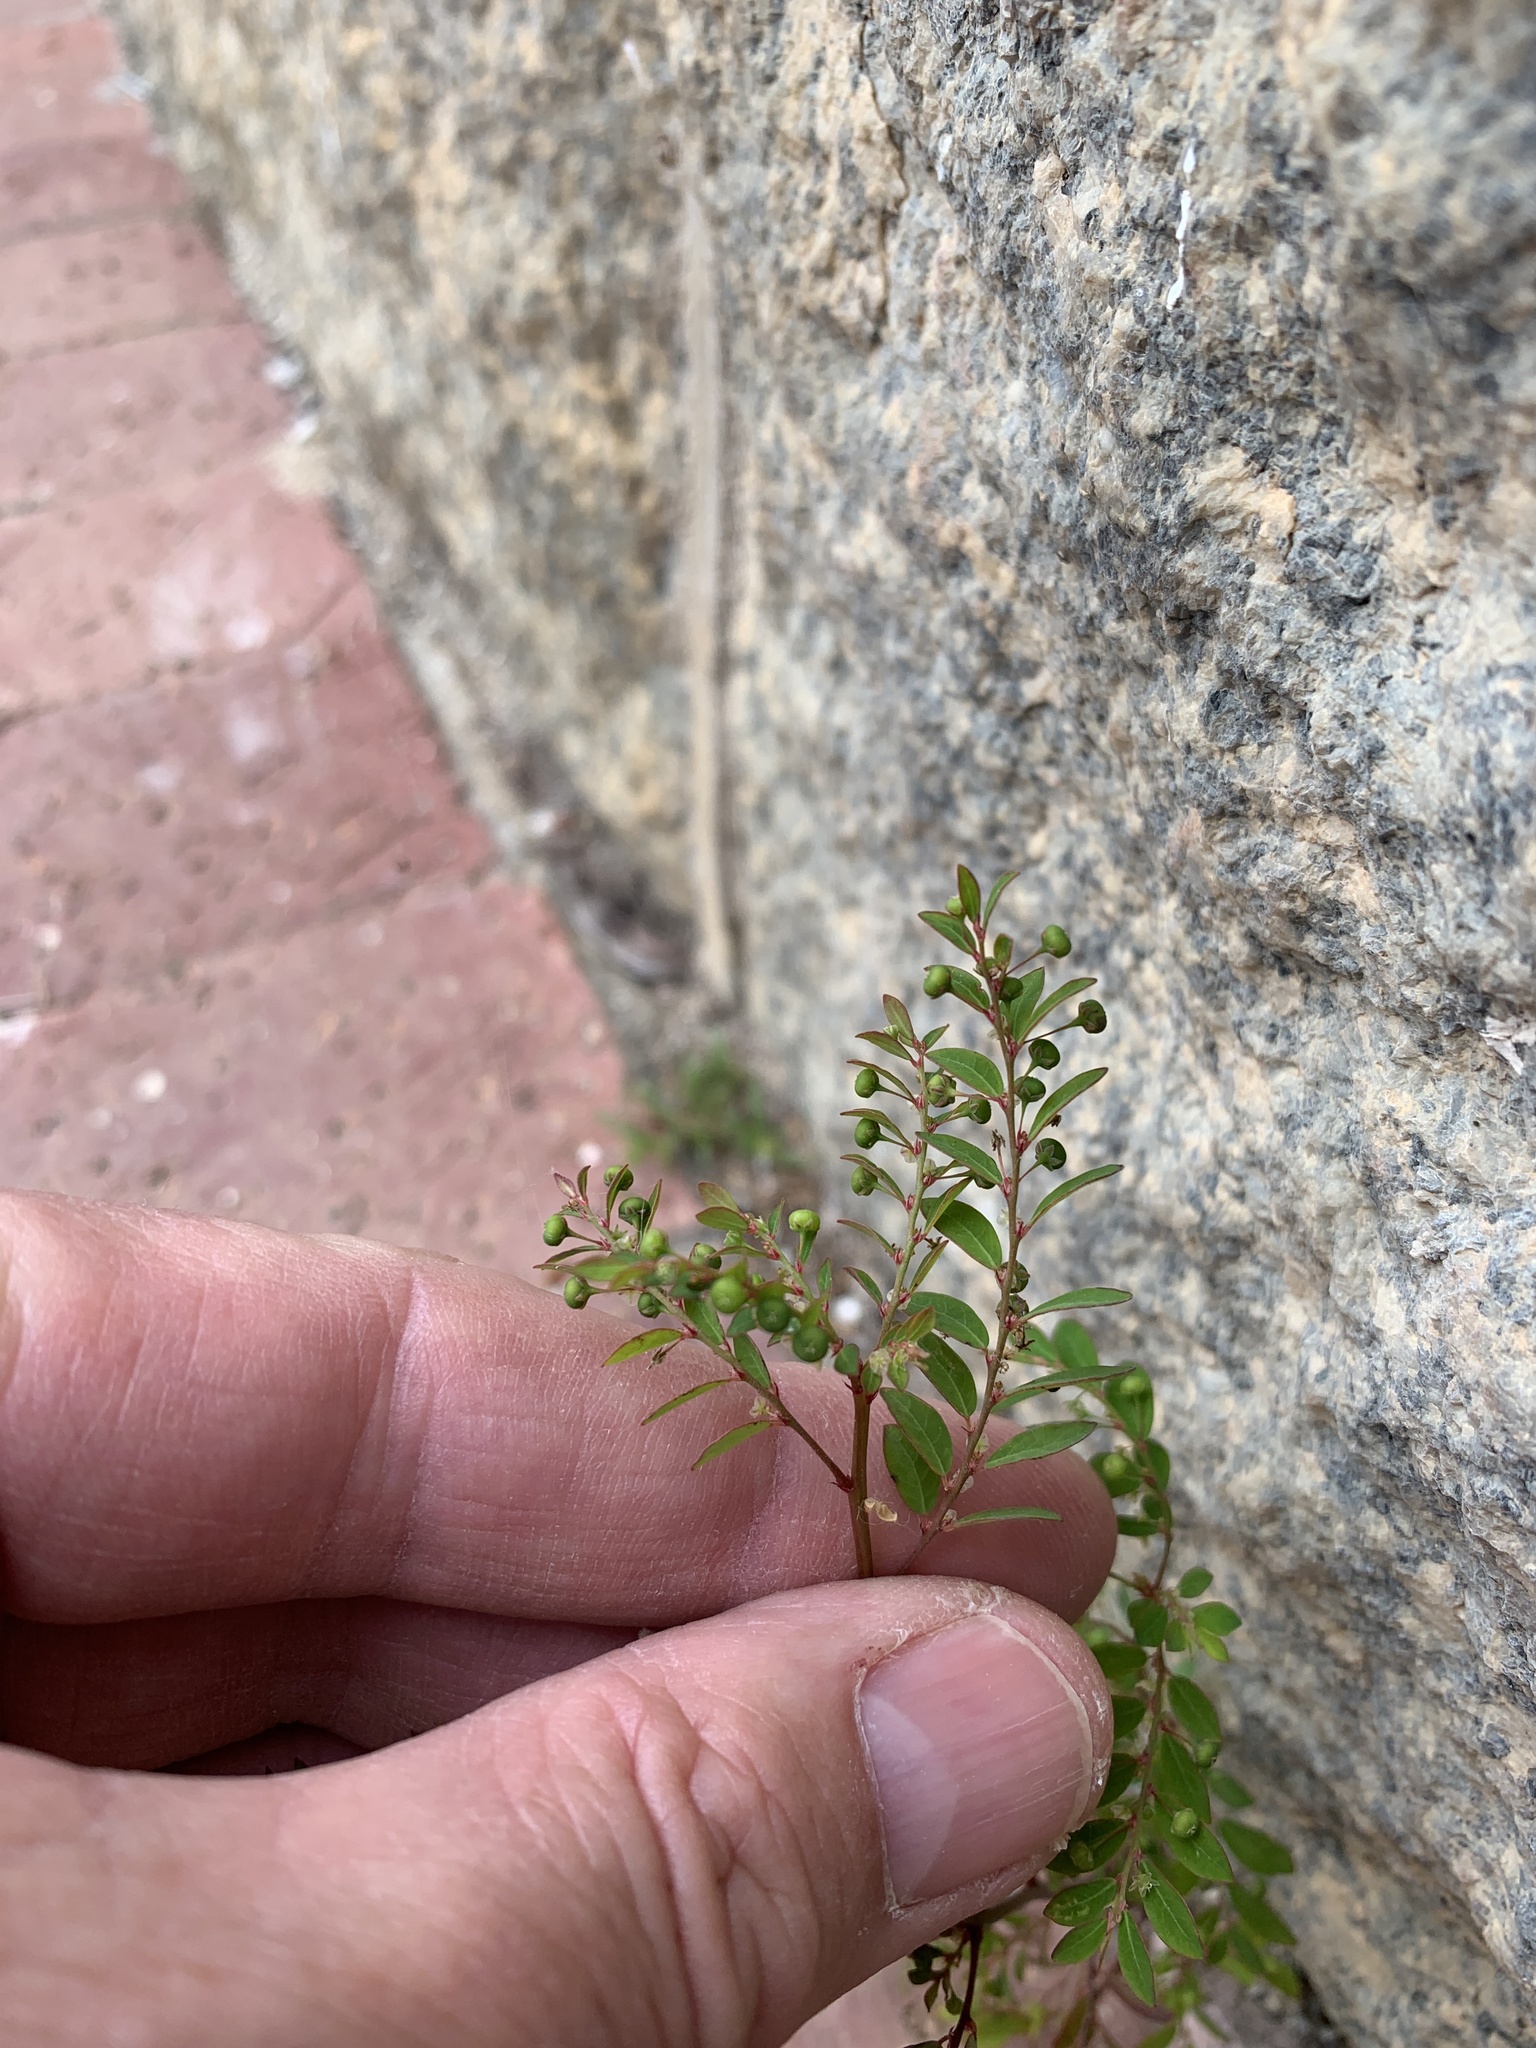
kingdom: Plantae
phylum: Tracheophyta
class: Magnoliopsida
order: Malpighiales
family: Phyllanthaceae
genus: Phyllanthus
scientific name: Phyllanthus tenellus
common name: Mascarene island leaf-flower
